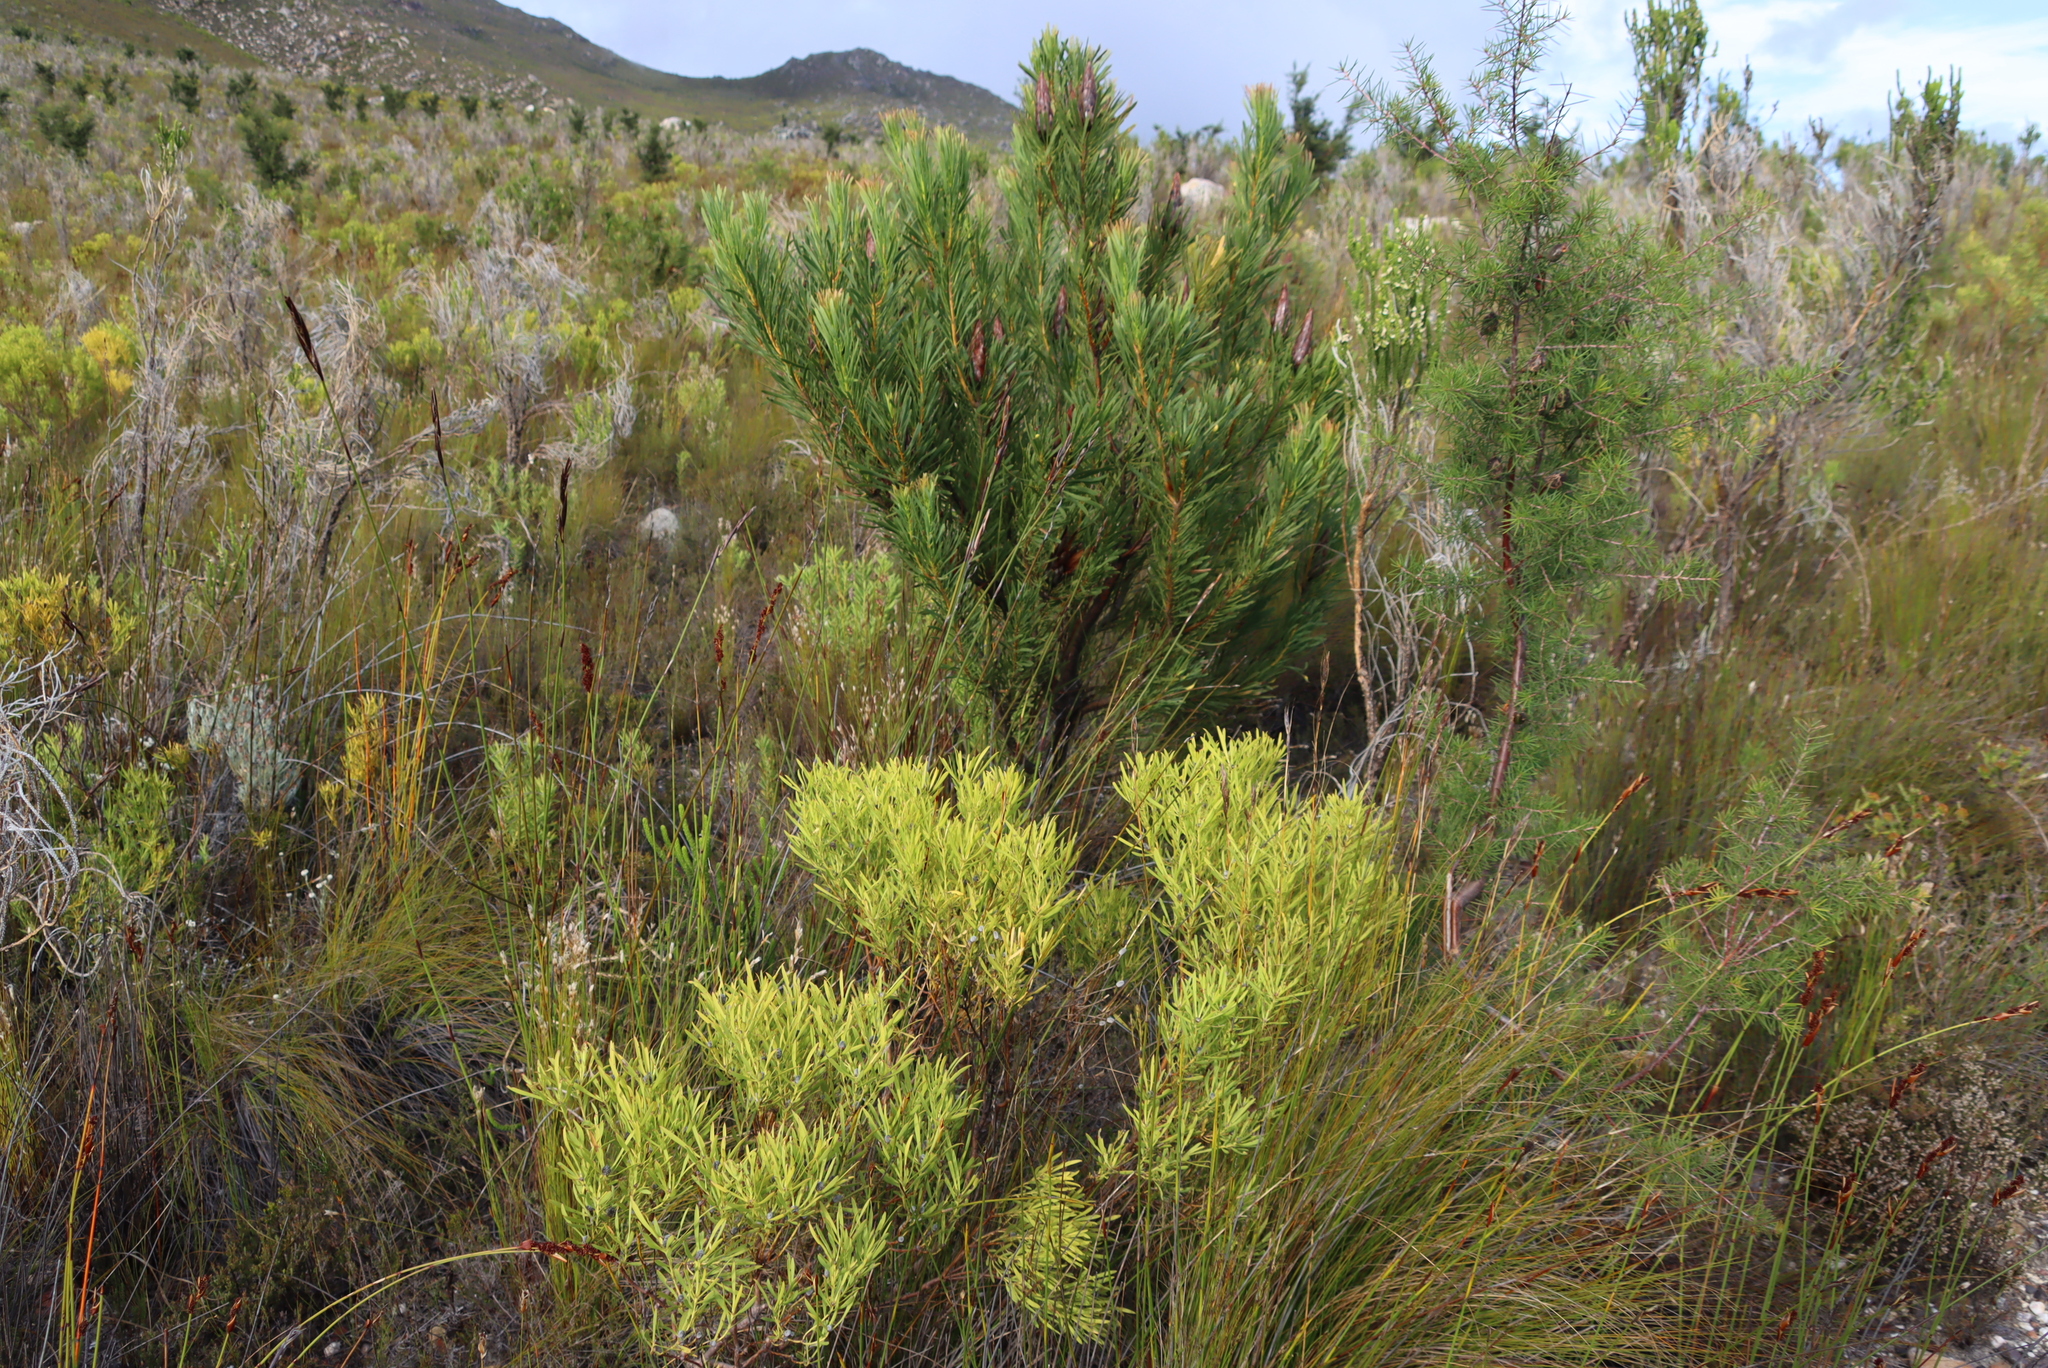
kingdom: Plantae
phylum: Tracheophyta
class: Magnoliopsida
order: Proteales
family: Proteaceae
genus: Hakea
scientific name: Hakea sericea
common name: Needle bush
